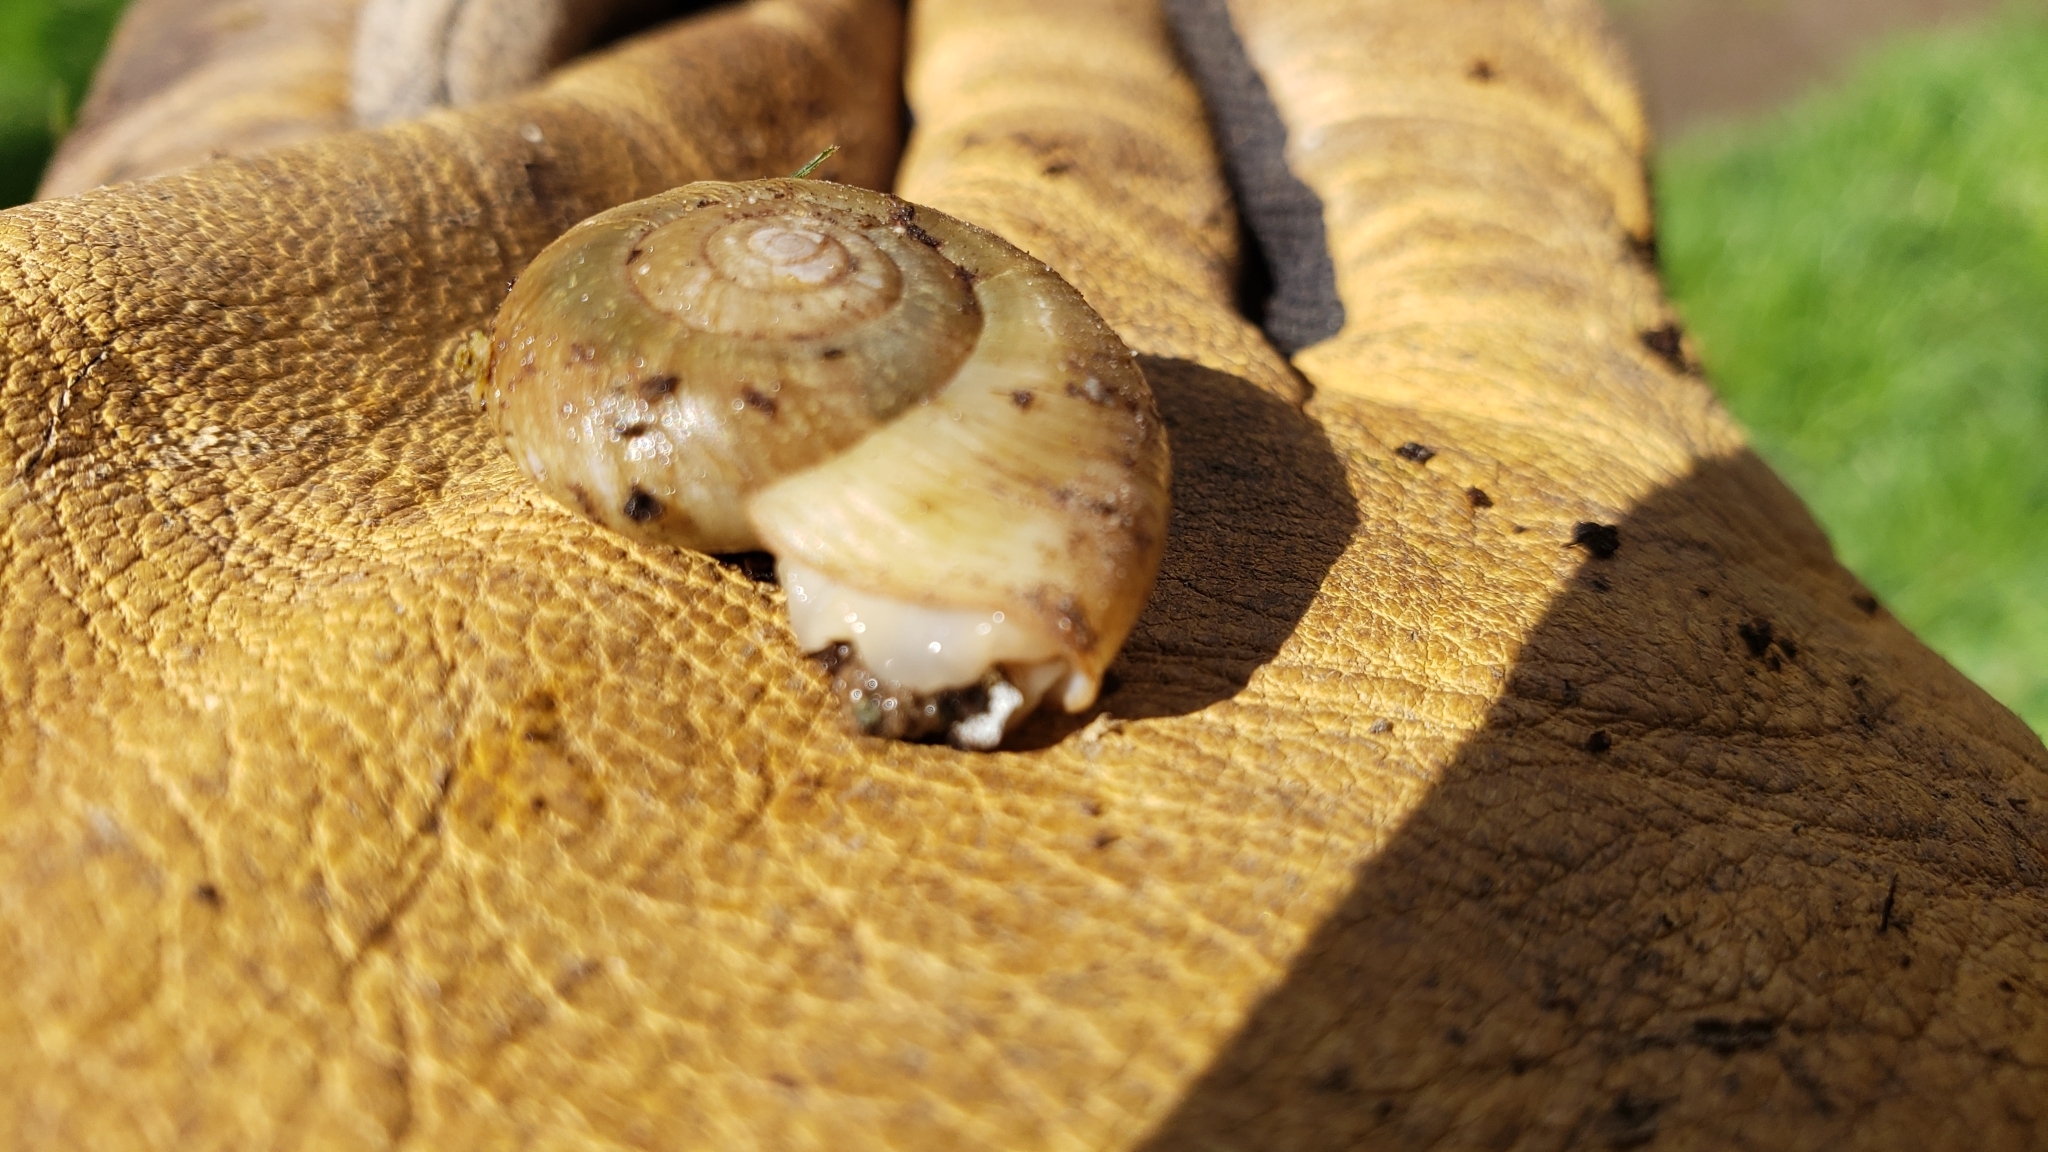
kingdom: Animalia
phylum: Mollusca
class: Gastropoda
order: Stylommatophora
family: Haplotrematidae
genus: Haplotrema
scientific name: Haplotrema vancouverense
